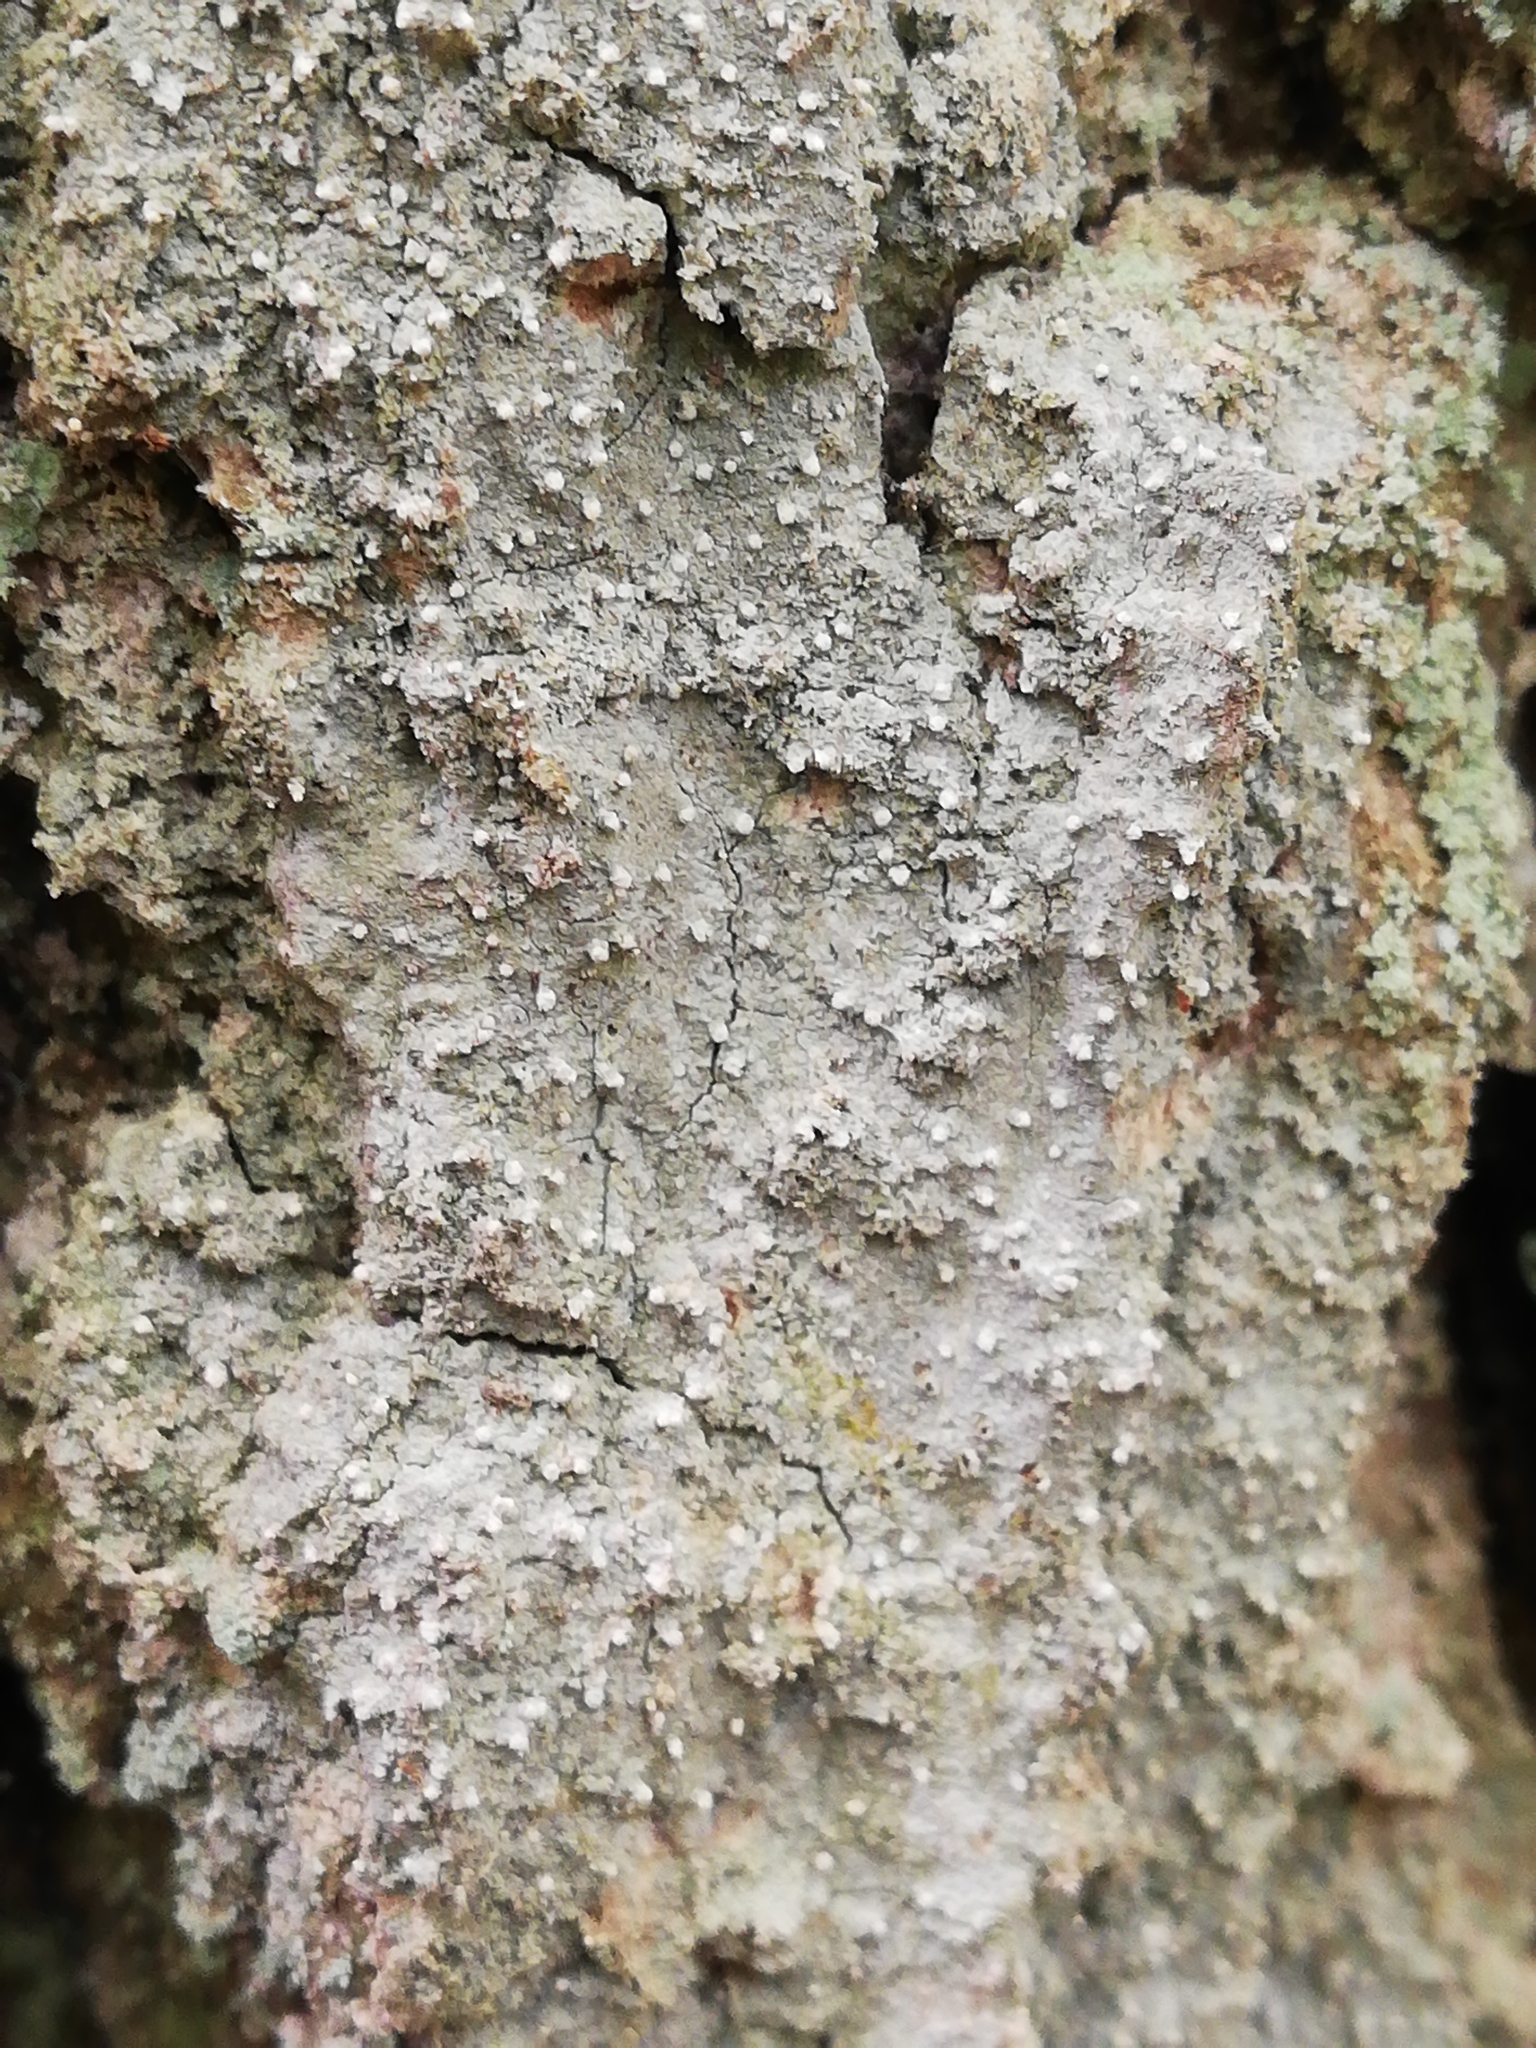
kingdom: Fungi
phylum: Ascomycota
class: Arthoniomycetes
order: Arthoniales
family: Roccellaceae
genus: Lecanactis
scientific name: Lecanactis abietina
